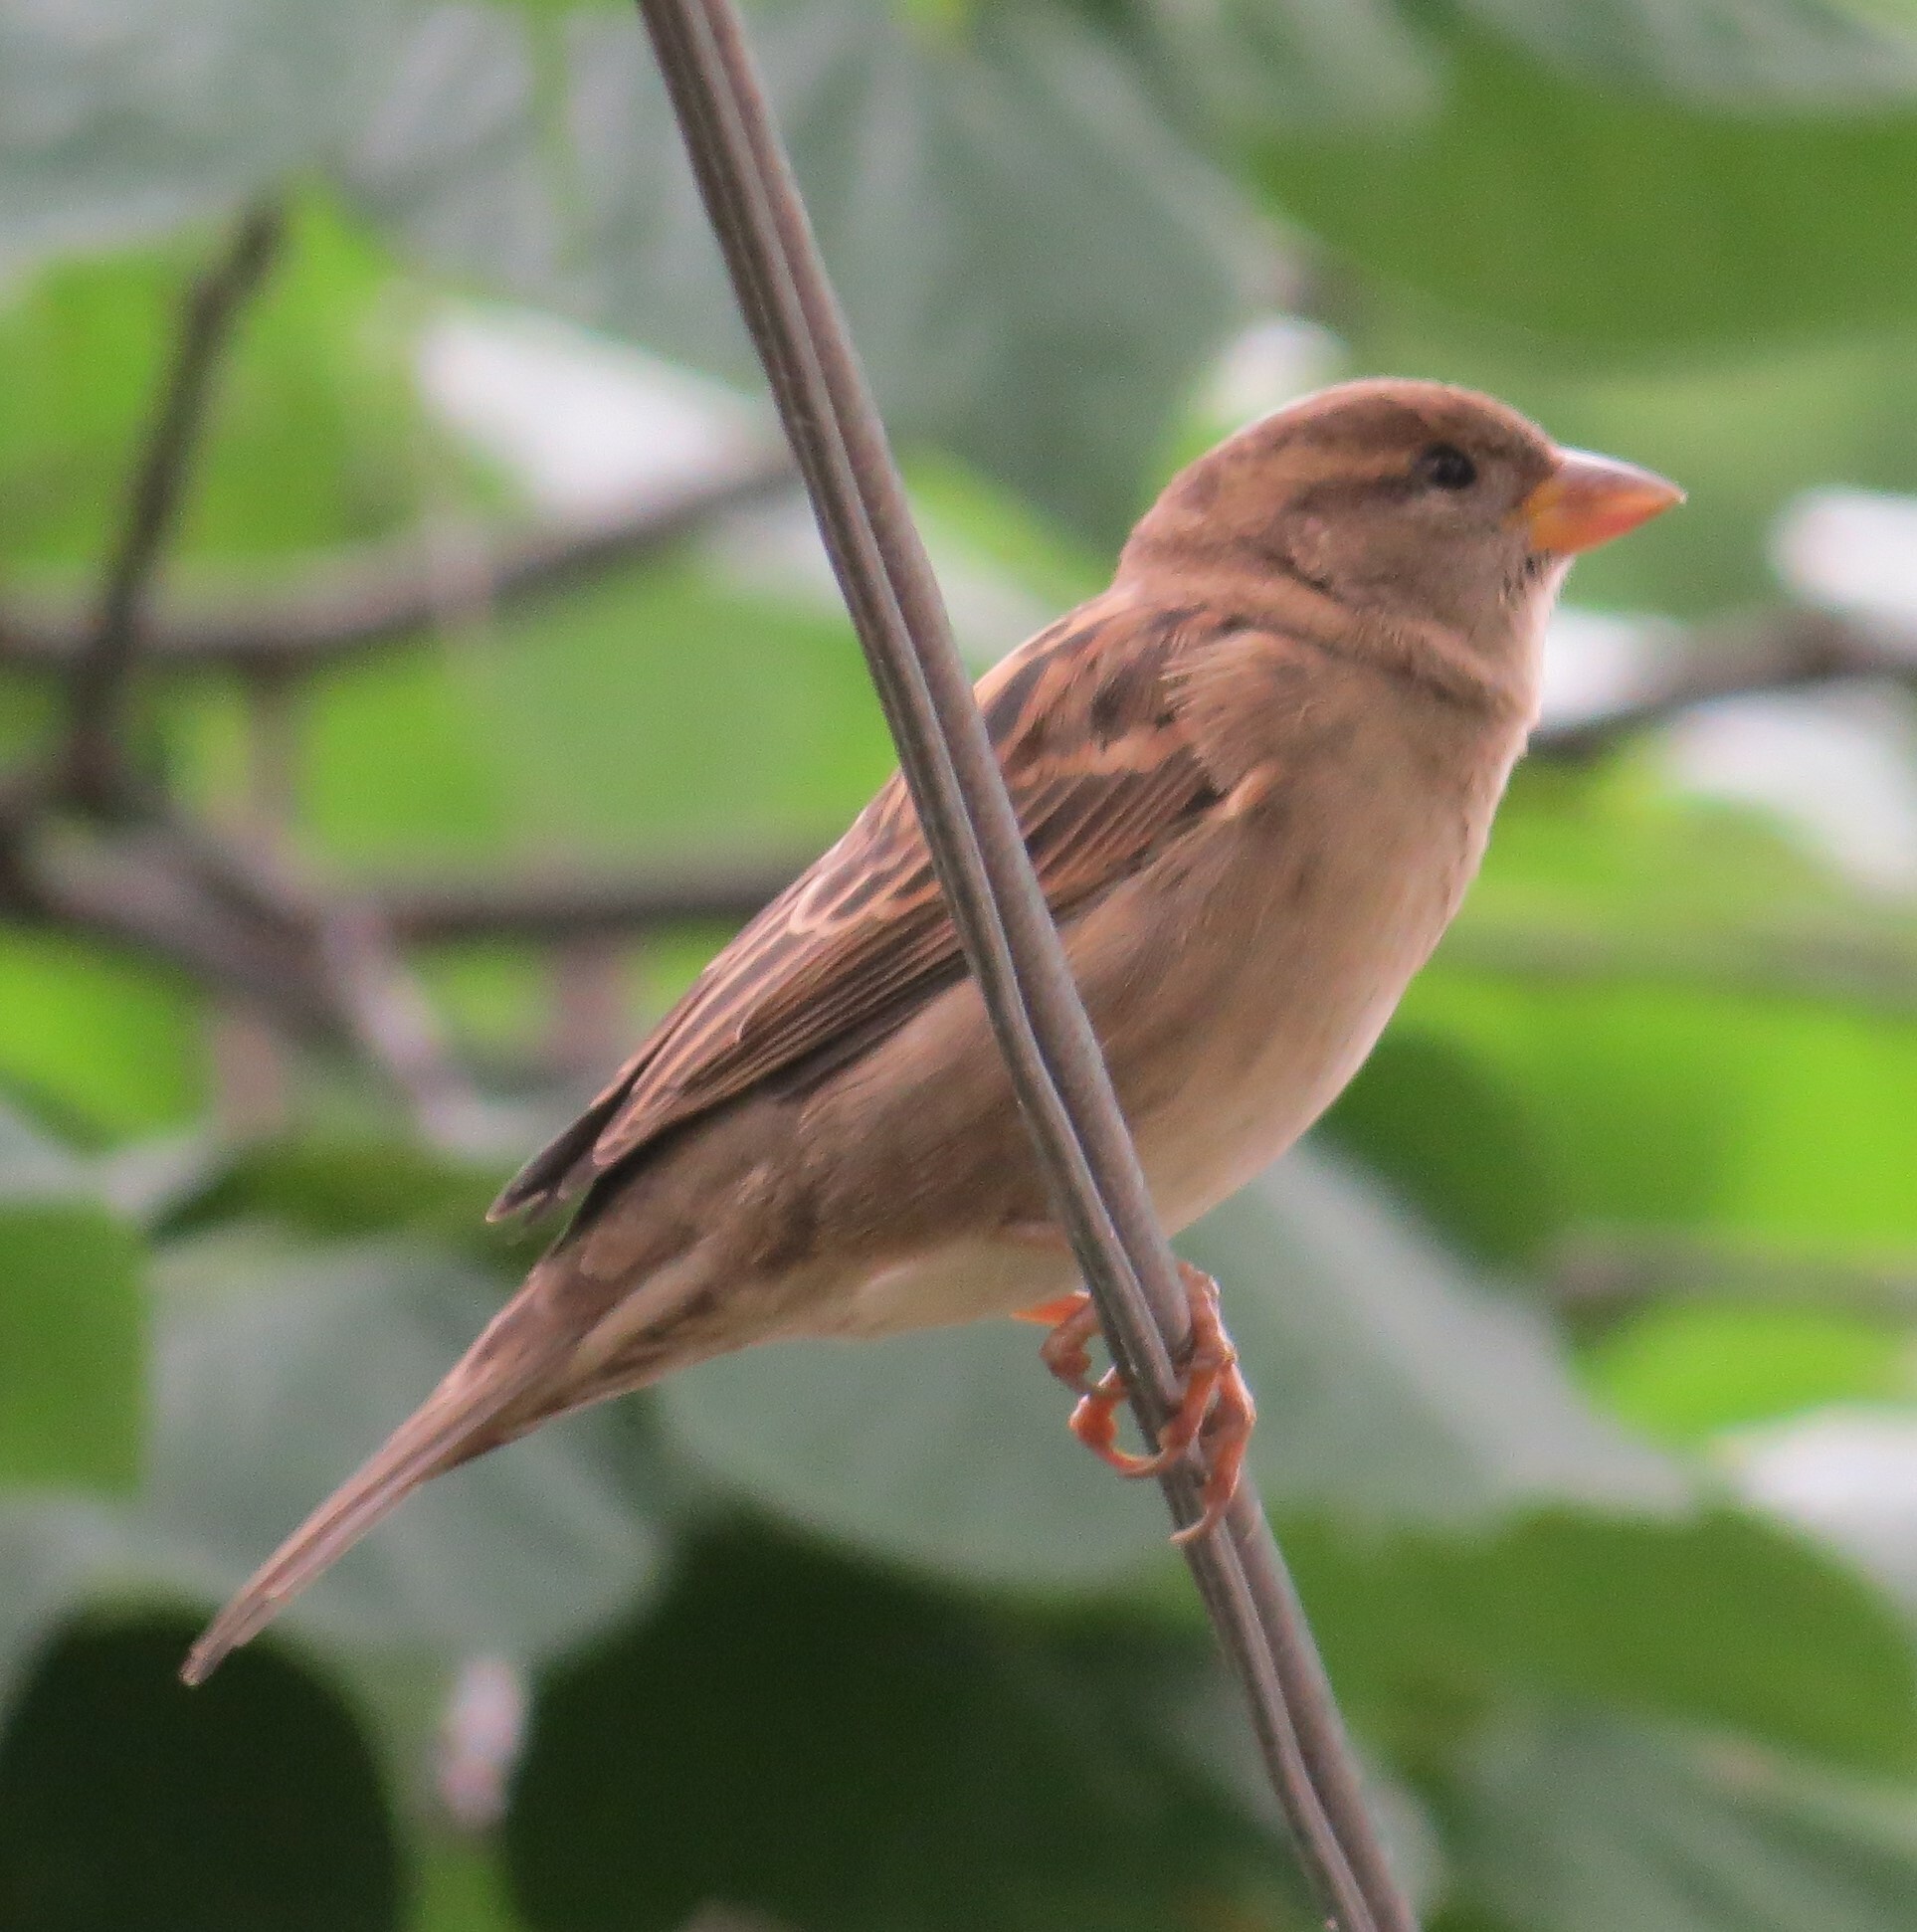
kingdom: Animalia
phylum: Chordata
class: Aves
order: Passeriformes
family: Passeridae
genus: Passer
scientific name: Passer domesticus
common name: House sparrow
